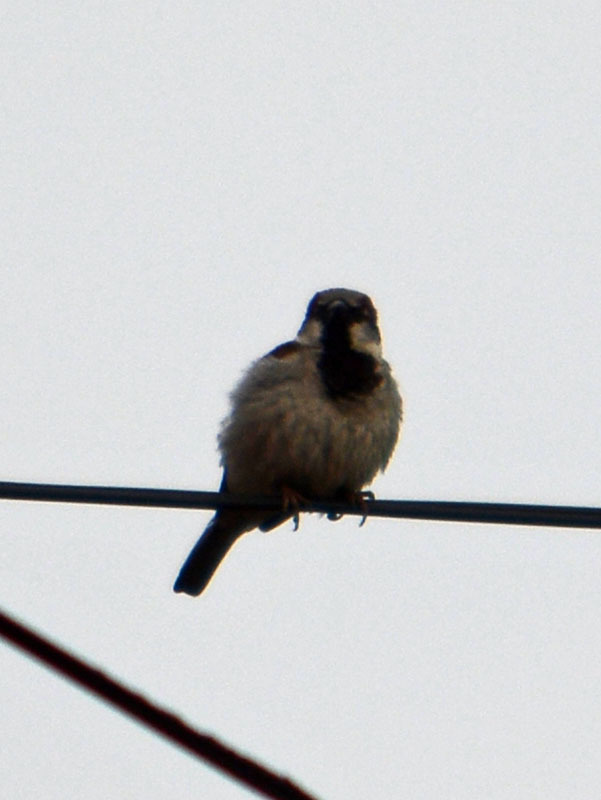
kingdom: Animalia
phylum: Chordata
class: Aves
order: Passeriformes
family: Passeridae
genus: Passer
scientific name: Passer domesticus
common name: House sparrow
